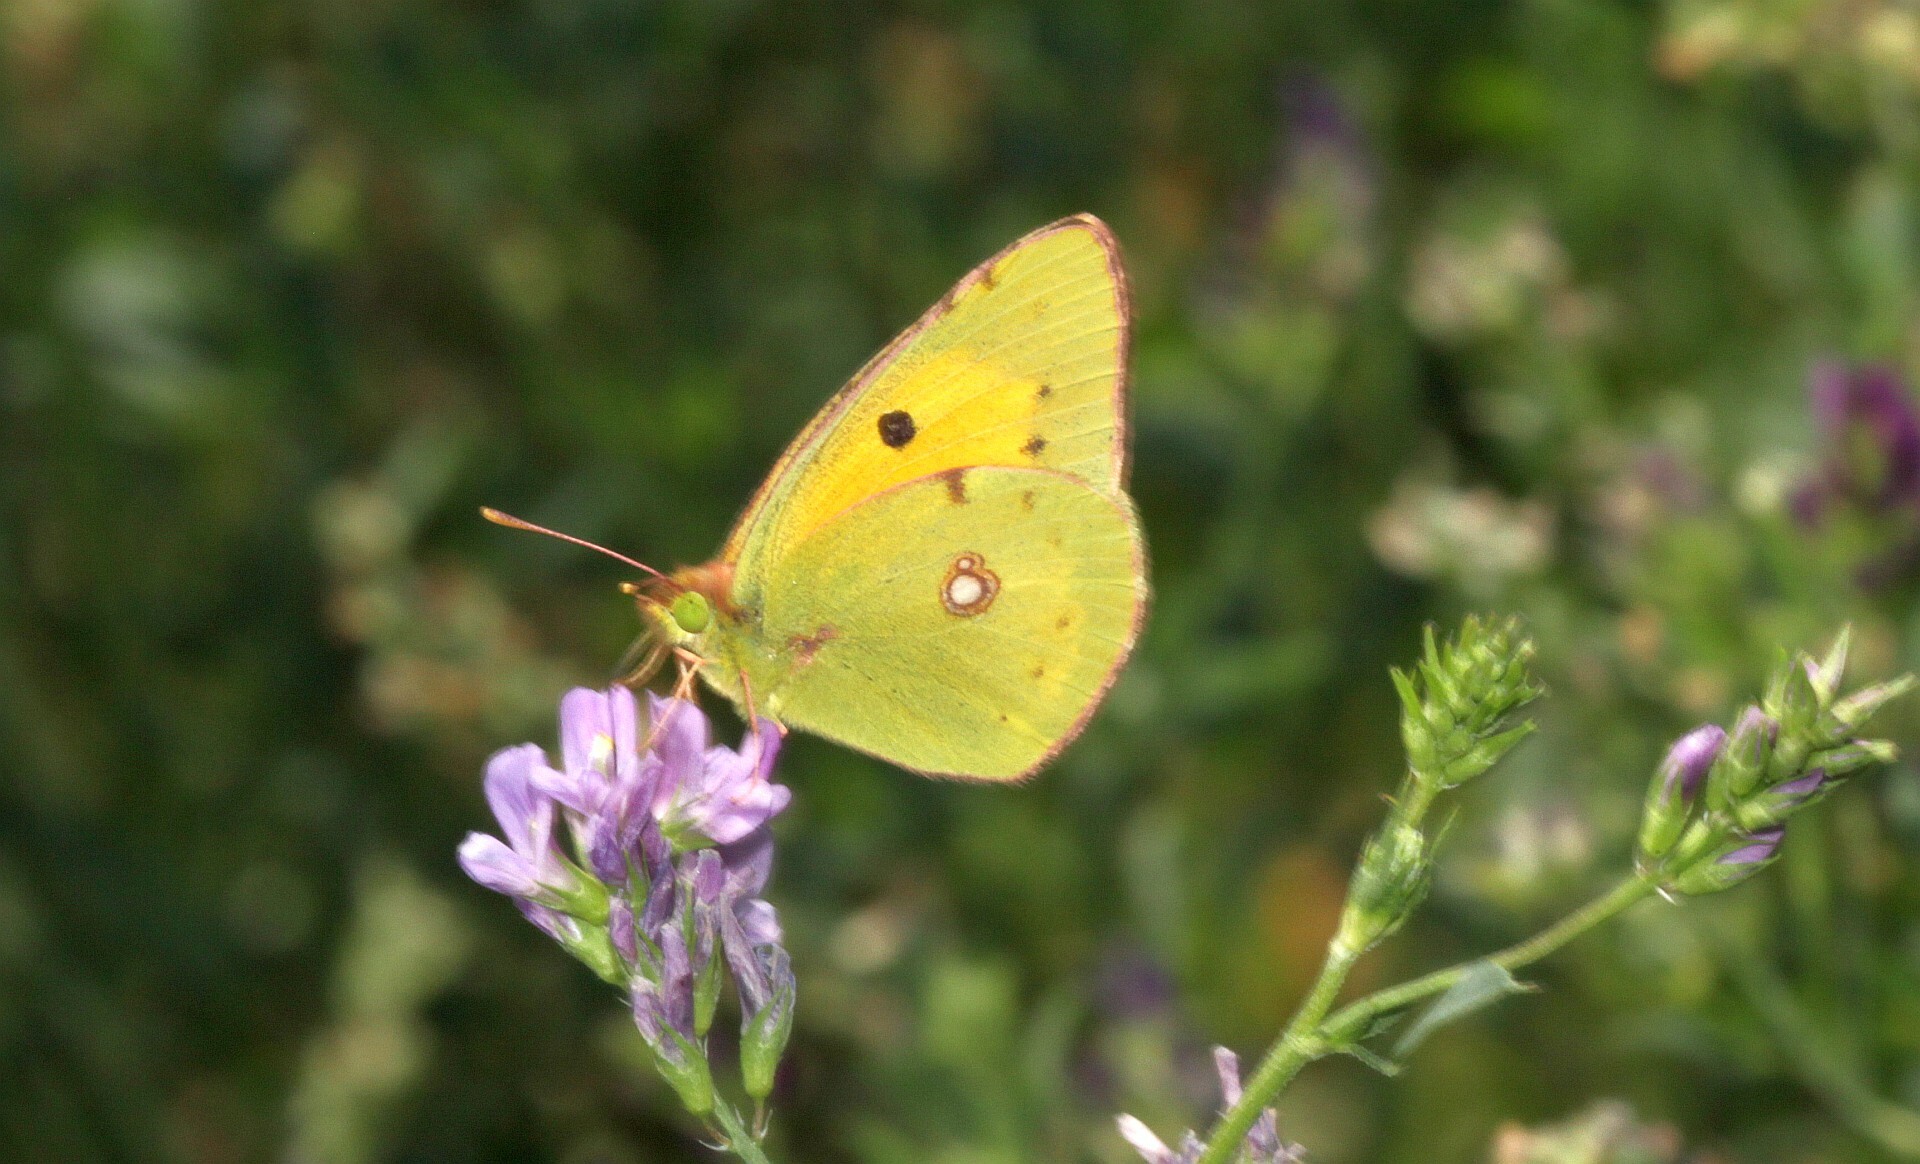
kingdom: Animalia
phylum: Arthropoda
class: Insecta
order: Lepidoptera
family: Pieridae
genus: Colias
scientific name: Colias croceus
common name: Clouded yellow
